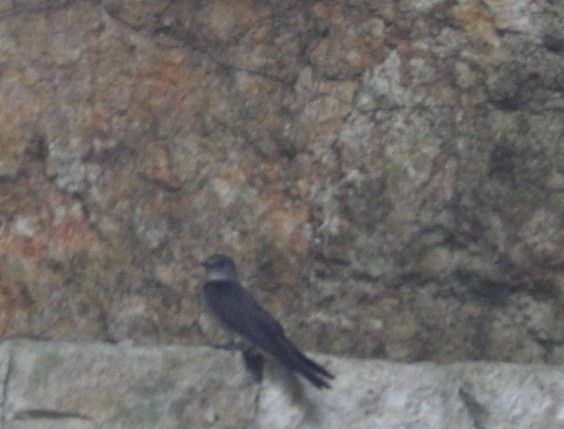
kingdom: Animalia
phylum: Chordata
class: Aves
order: Passeriformes
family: Hirundinidae
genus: Stelgidopteryx
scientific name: Stelgidopteryx serripennis
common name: Northern rough-winged swallow
